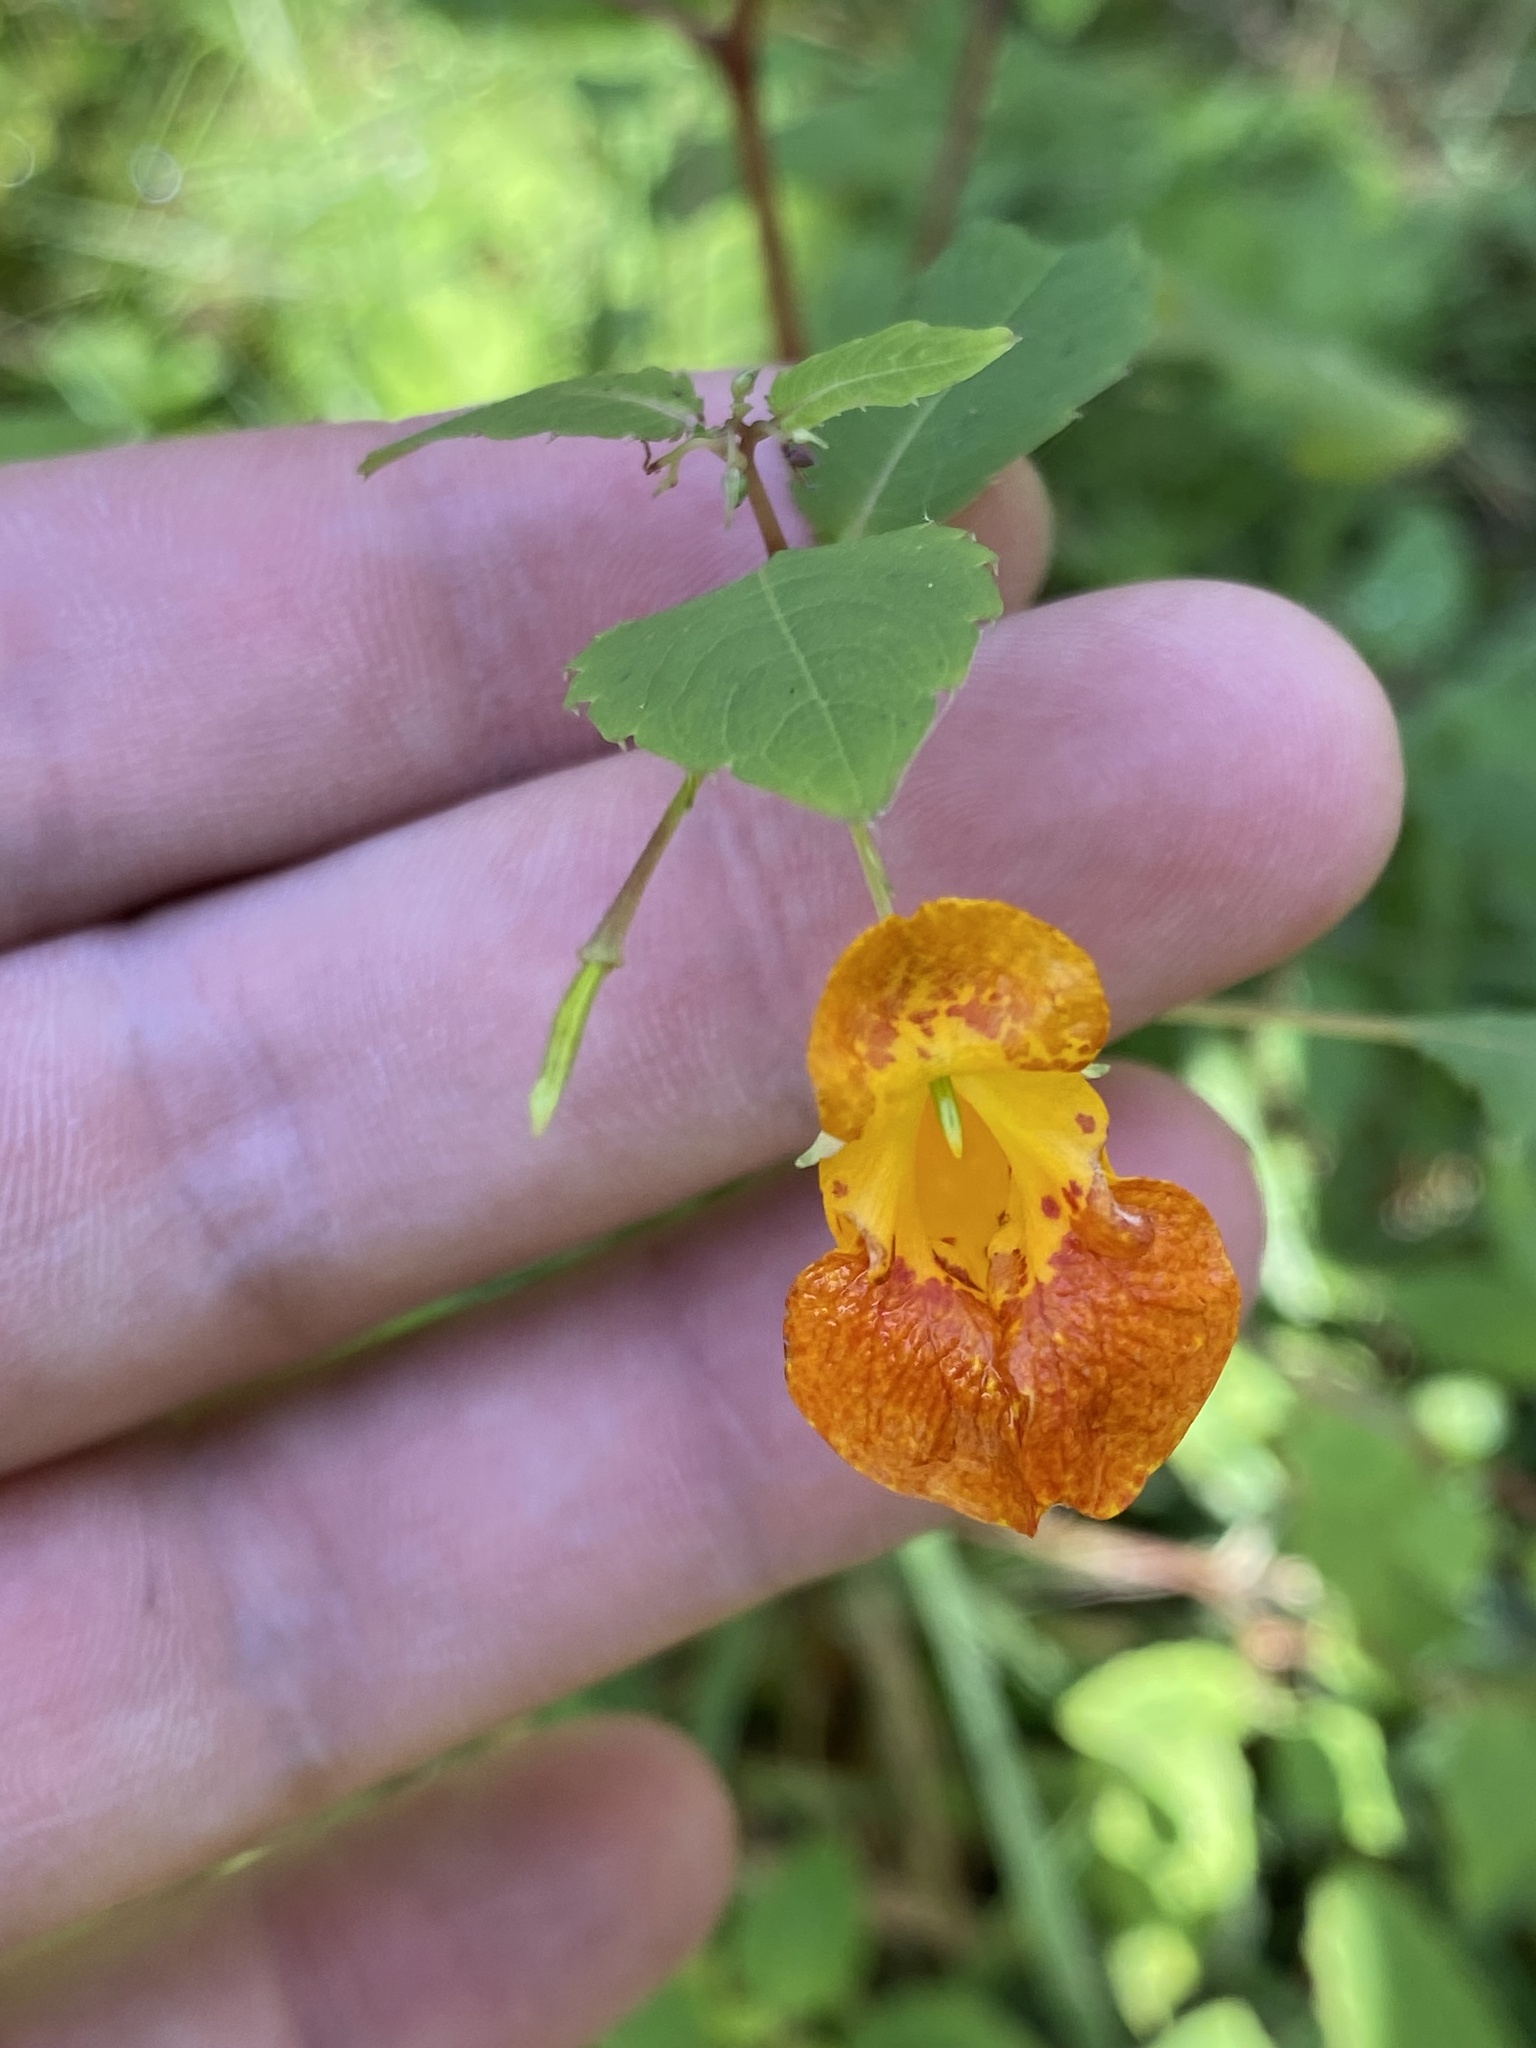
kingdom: Plantae
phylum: Tracheophyta
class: Magnoliopsida
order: Ericales
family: Balsaminaceae
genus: Impatiens
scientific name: Impatiens capensis
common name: Orange balsam
